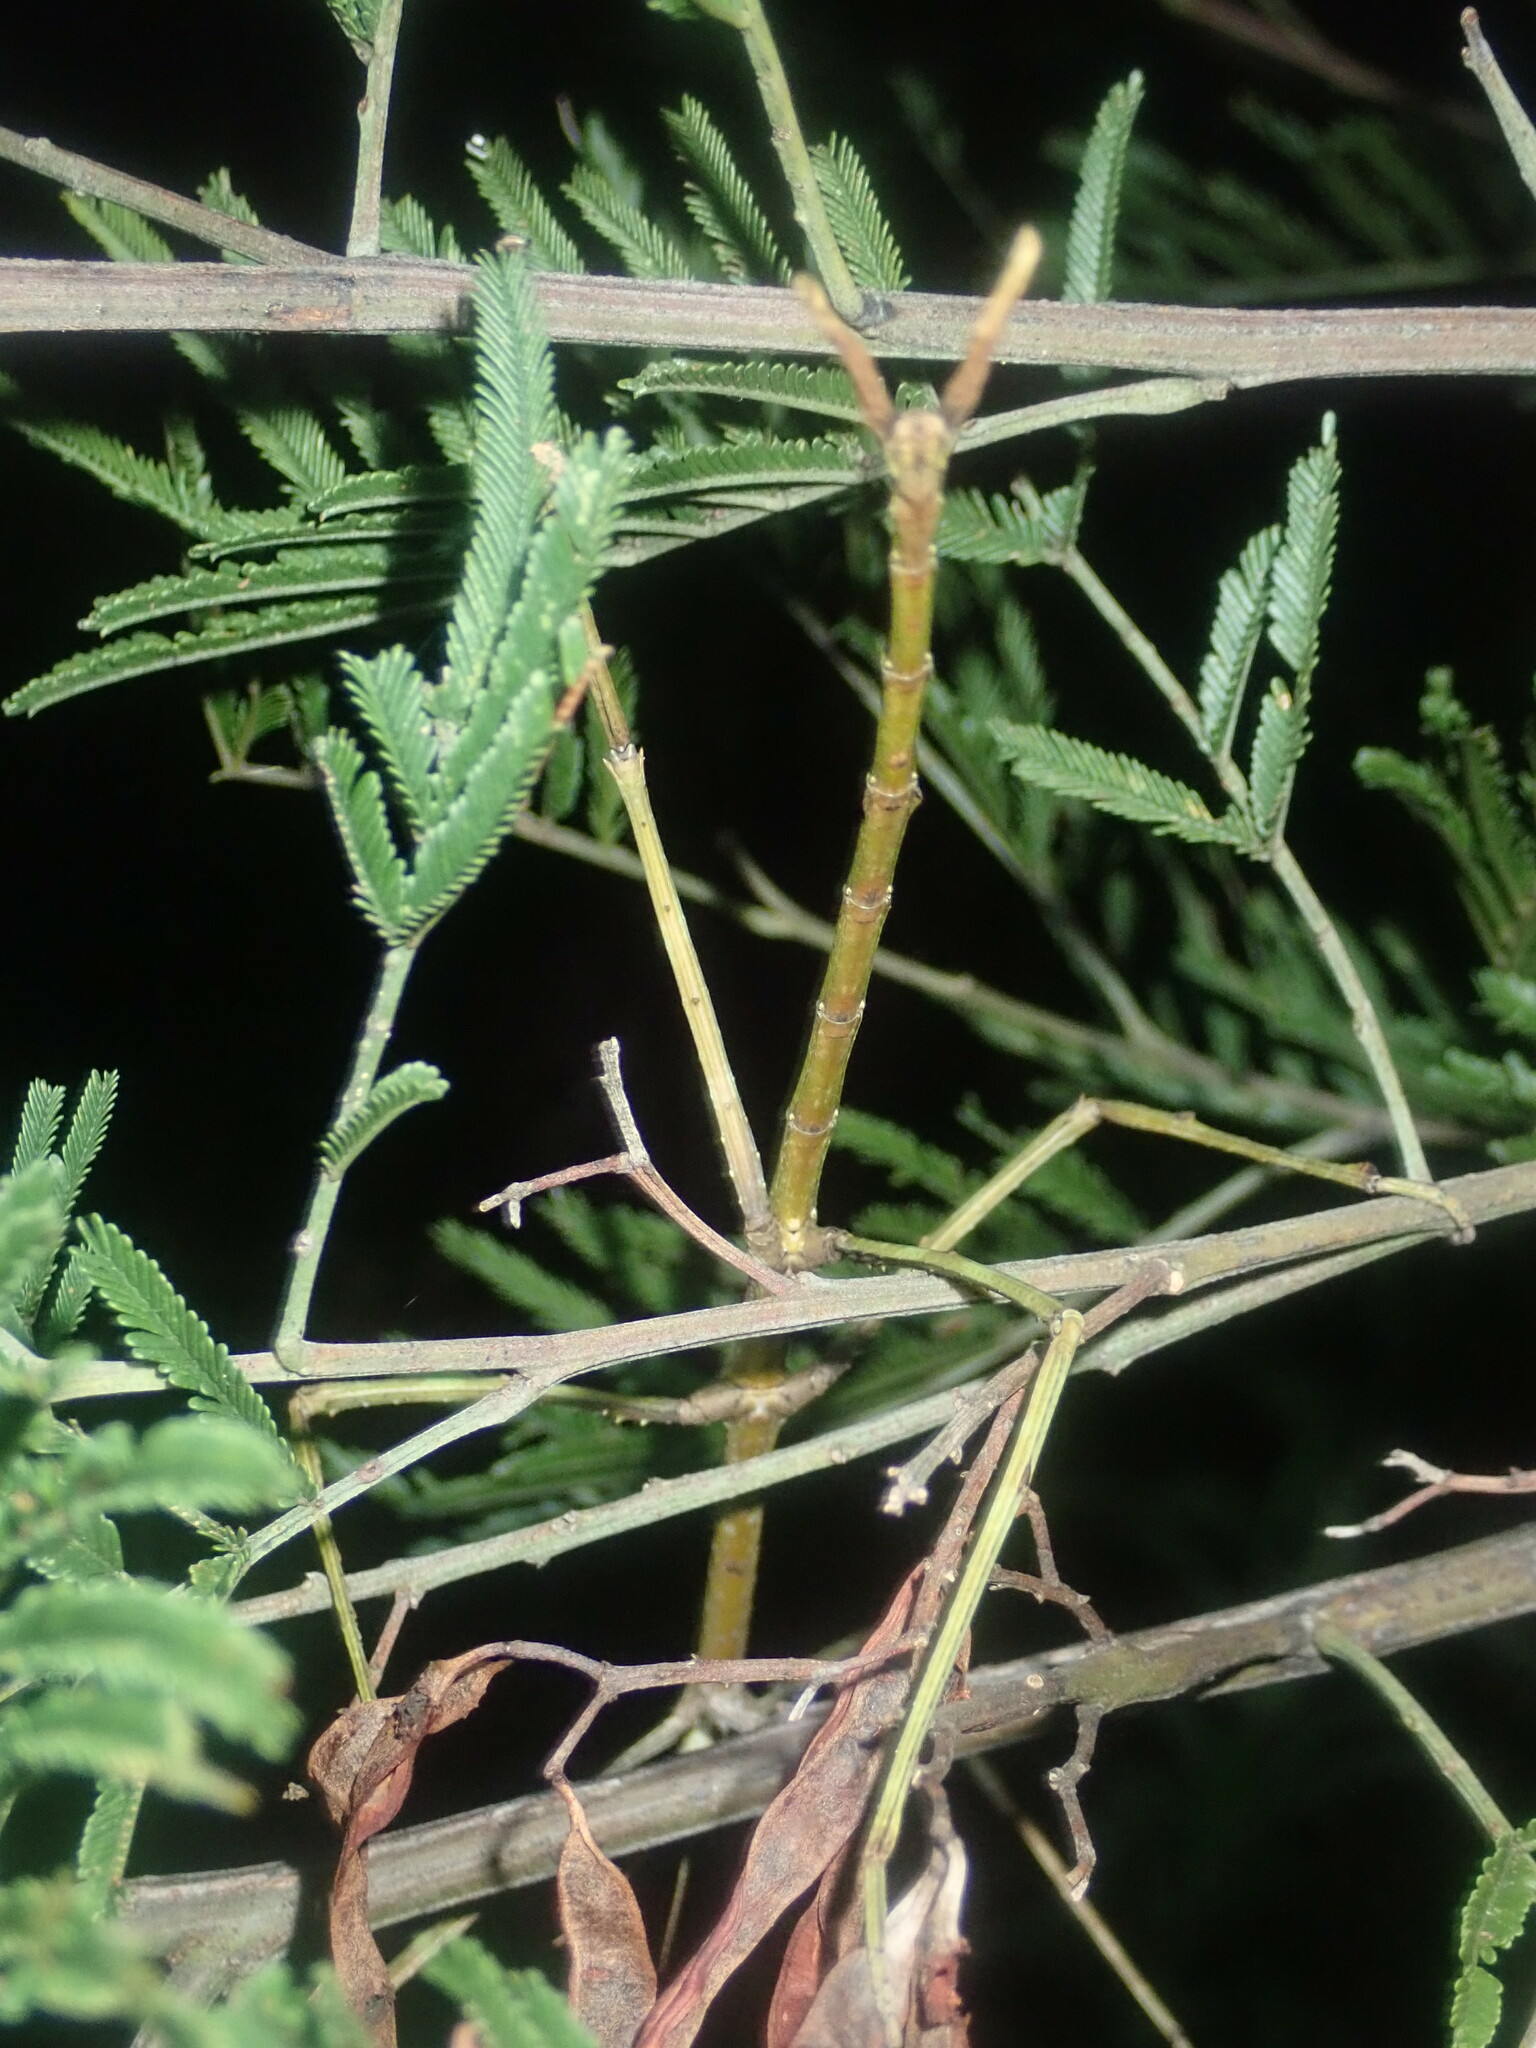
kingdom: Animalia
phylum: Arthropoda
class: Insecta
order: Phasmida
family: Phasmatidae
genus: Ctenomorpha
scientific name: Ctenomorpha marginipennis
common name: Margined-winged stick-insect
